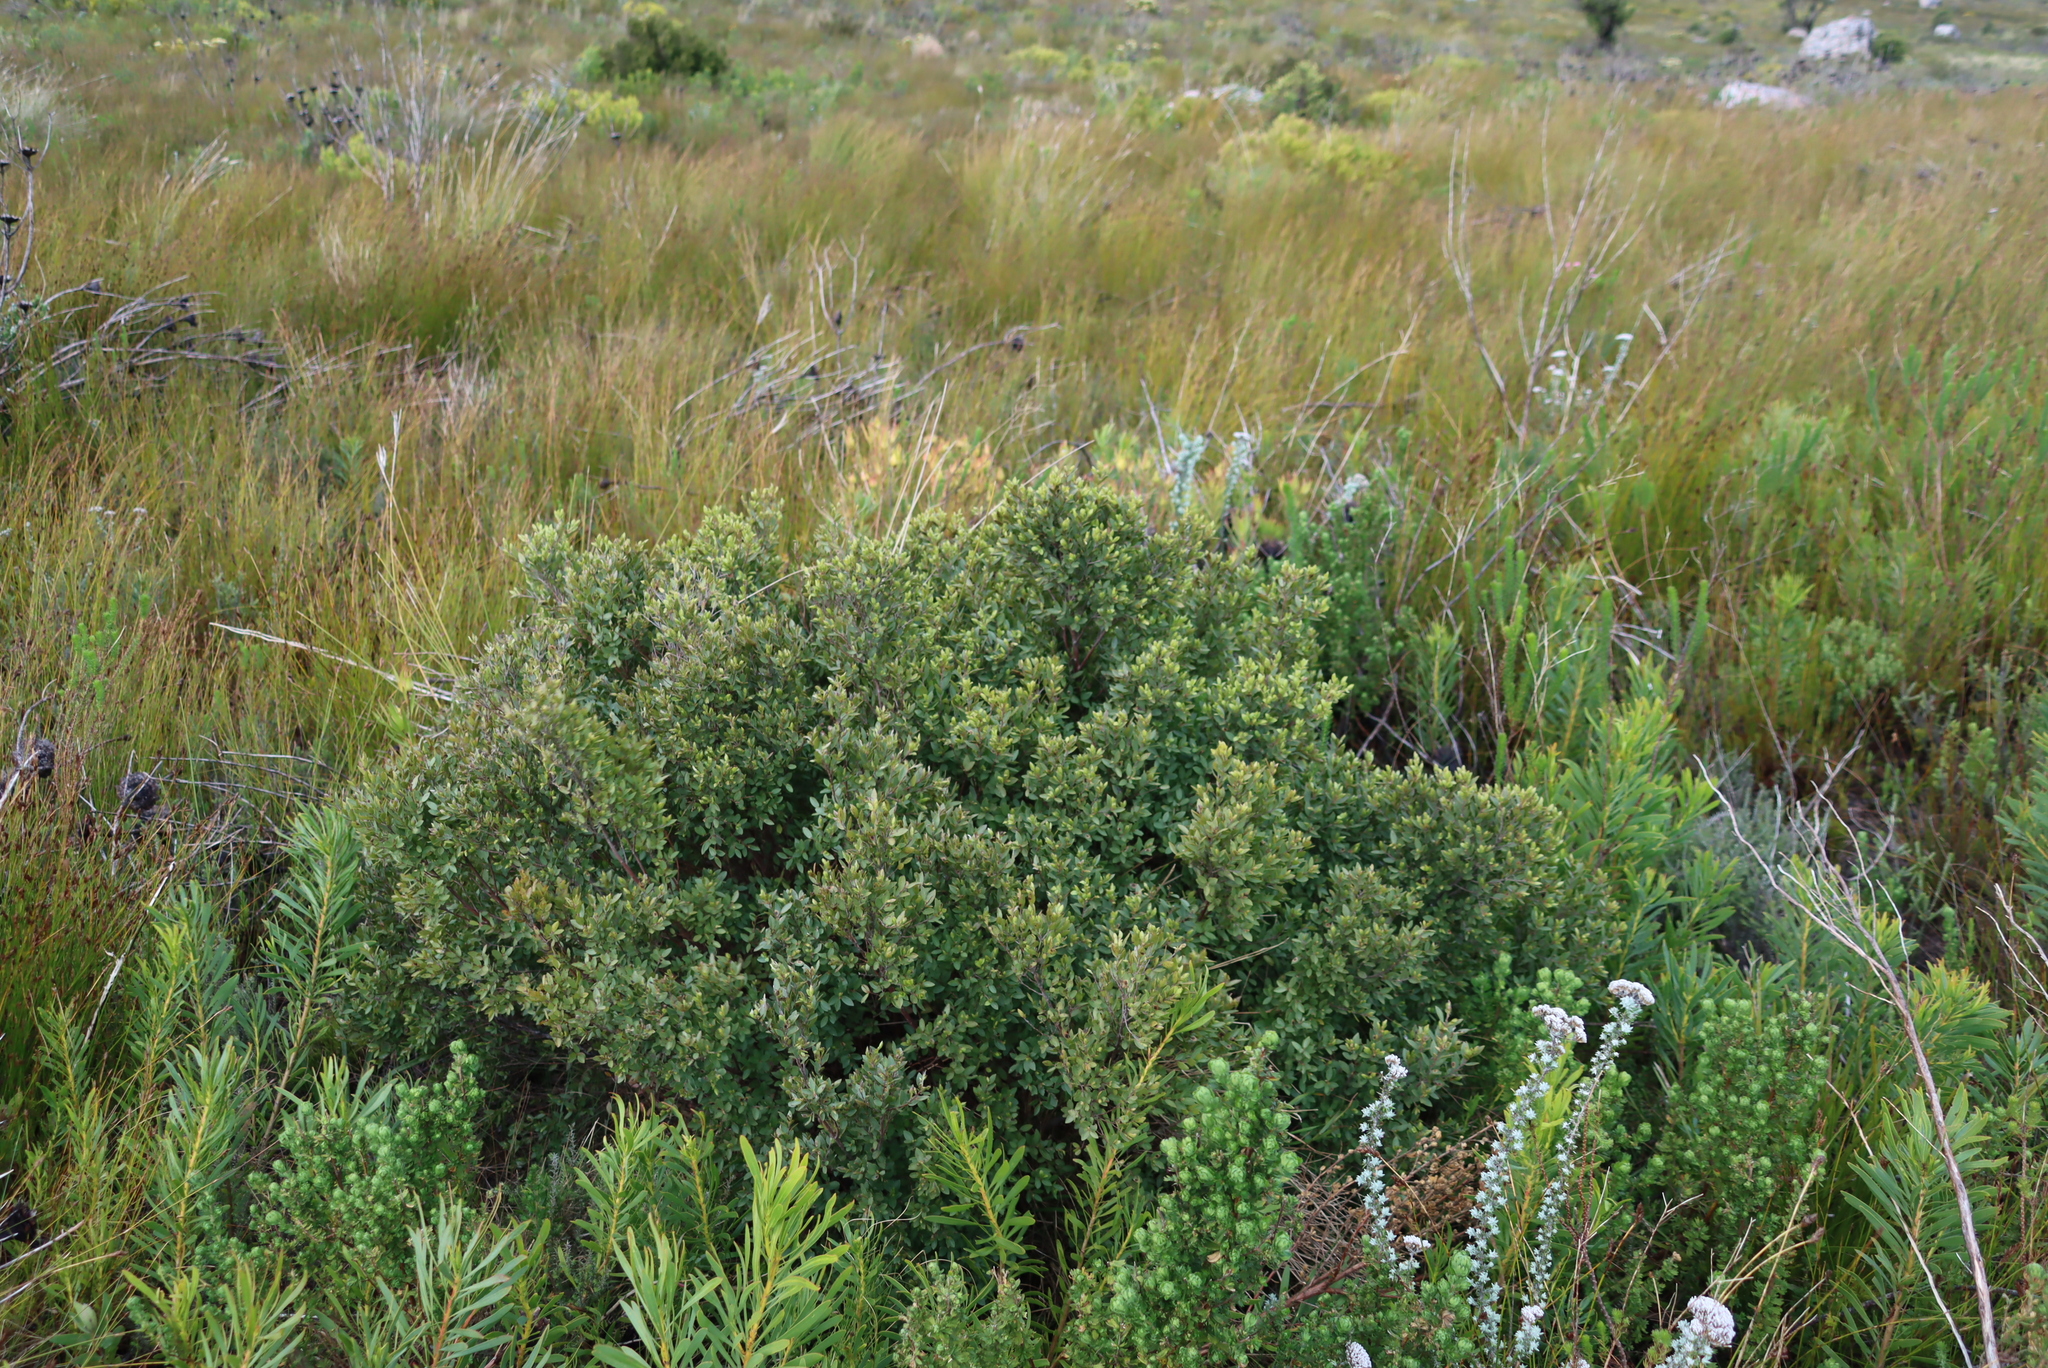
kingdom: Plantae
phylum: Tracheophyta
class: Magnoliopsida
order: Ericales
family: Ebenaceae
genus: Diospyros
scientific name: Diospyros glabra
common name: Fynbos star apple
